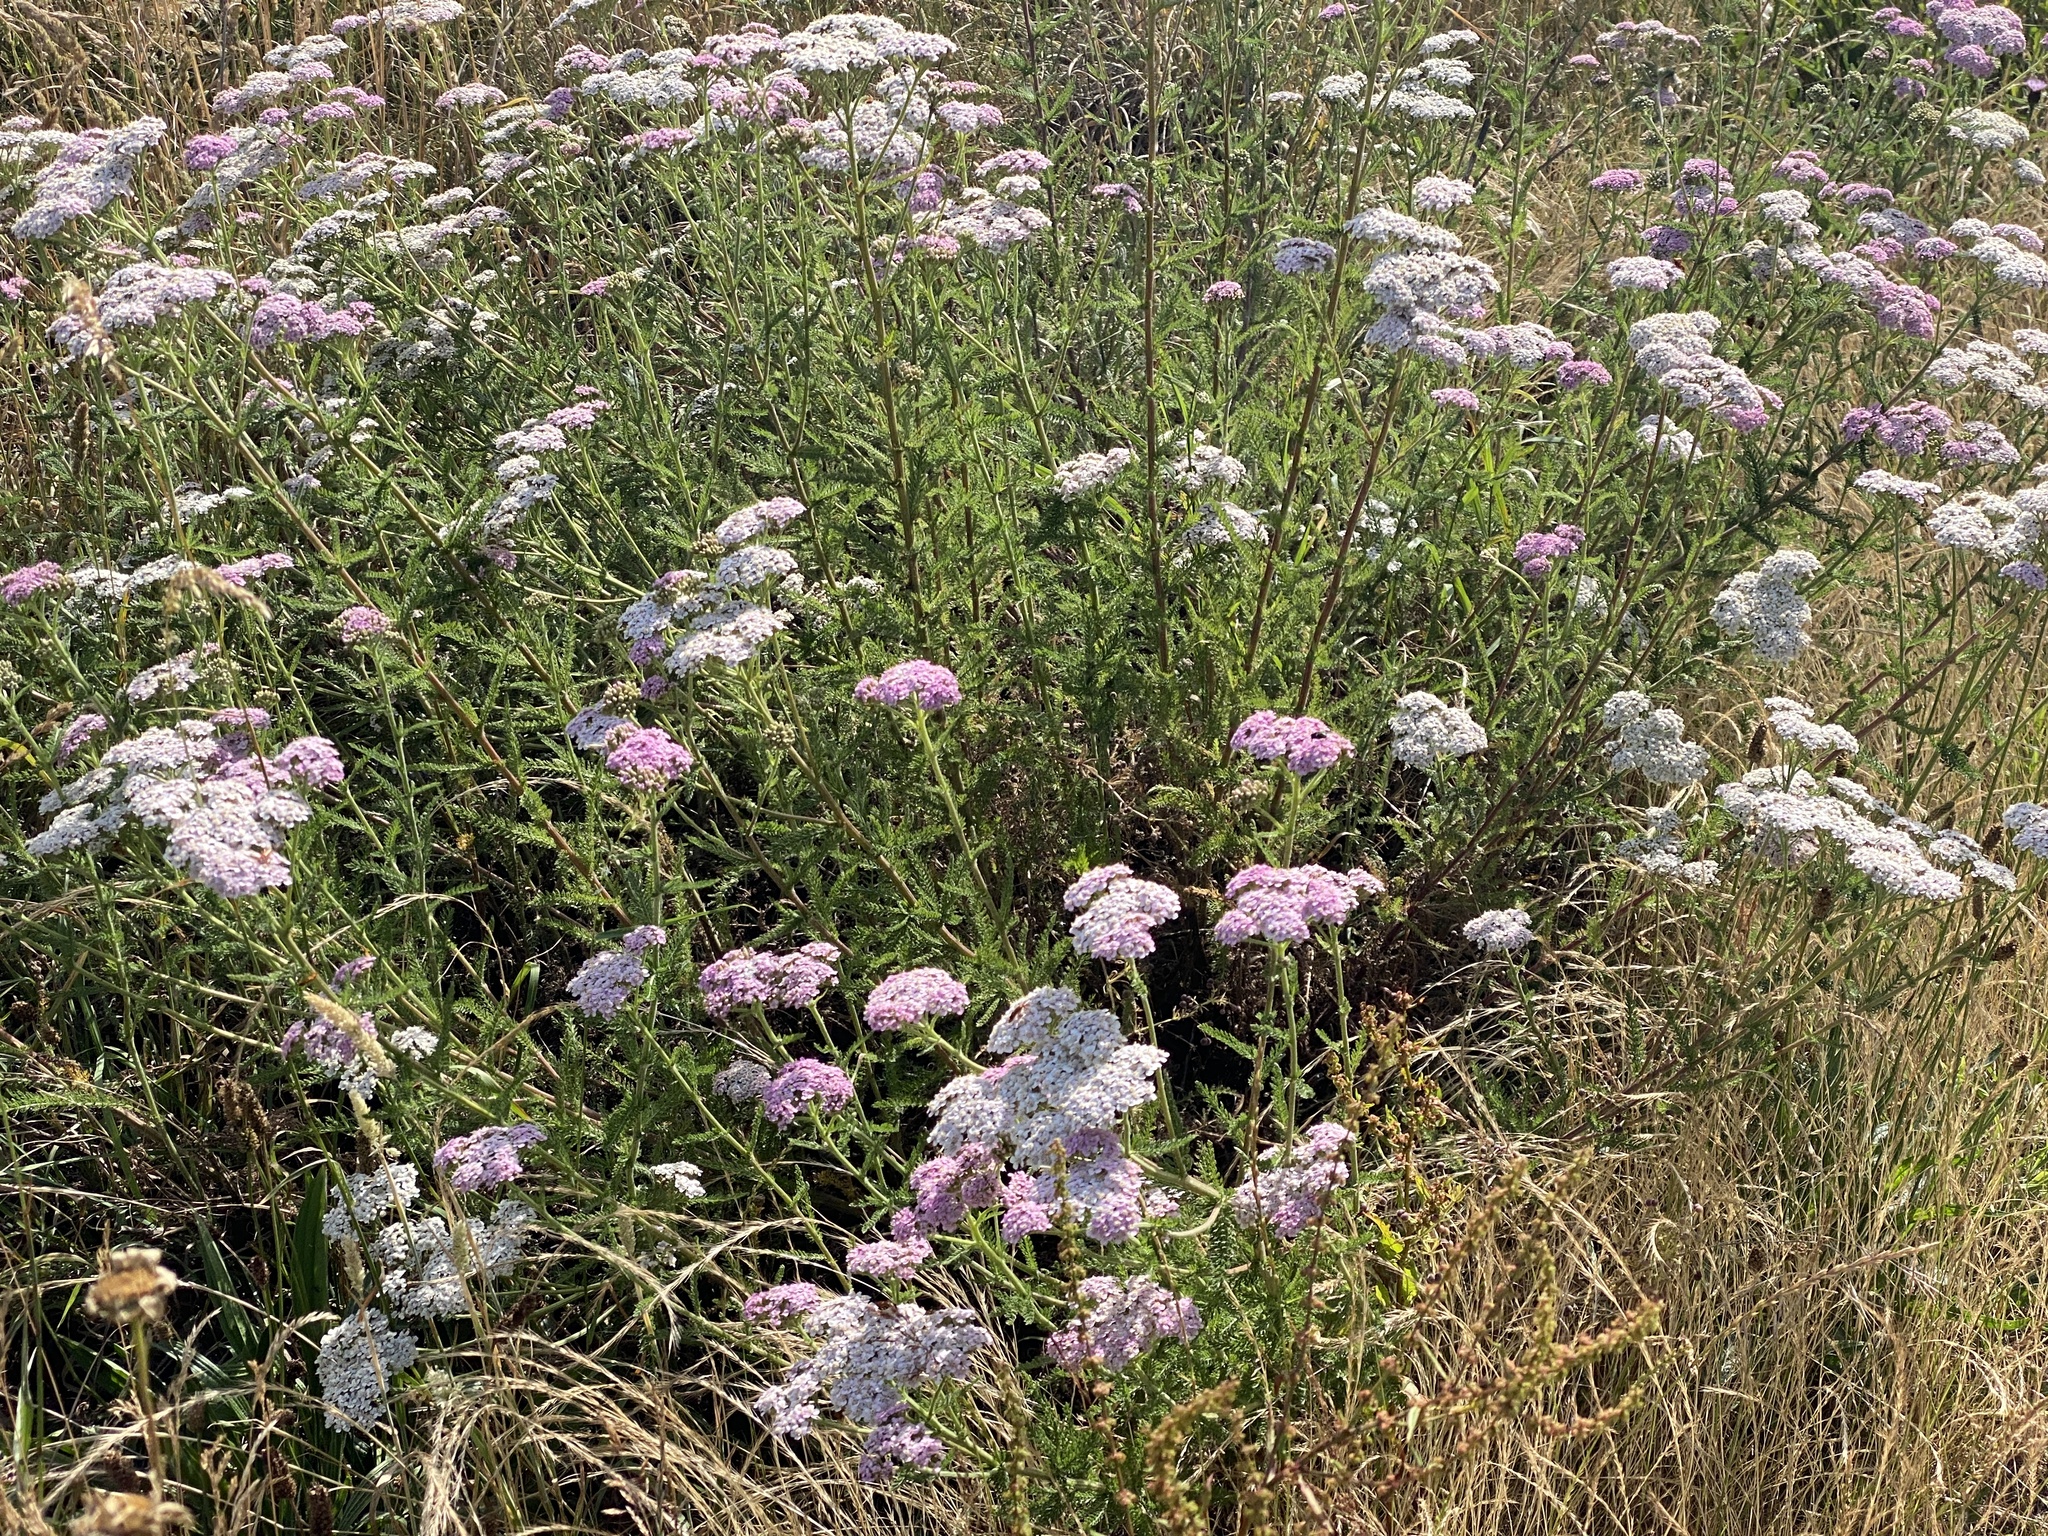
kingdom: Plantae
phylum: Tracheophyta
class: Magnoliopsida
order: Asterales
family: Asteraceae
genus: Achillea
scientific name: Achillea millefolium
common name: Yarrow
